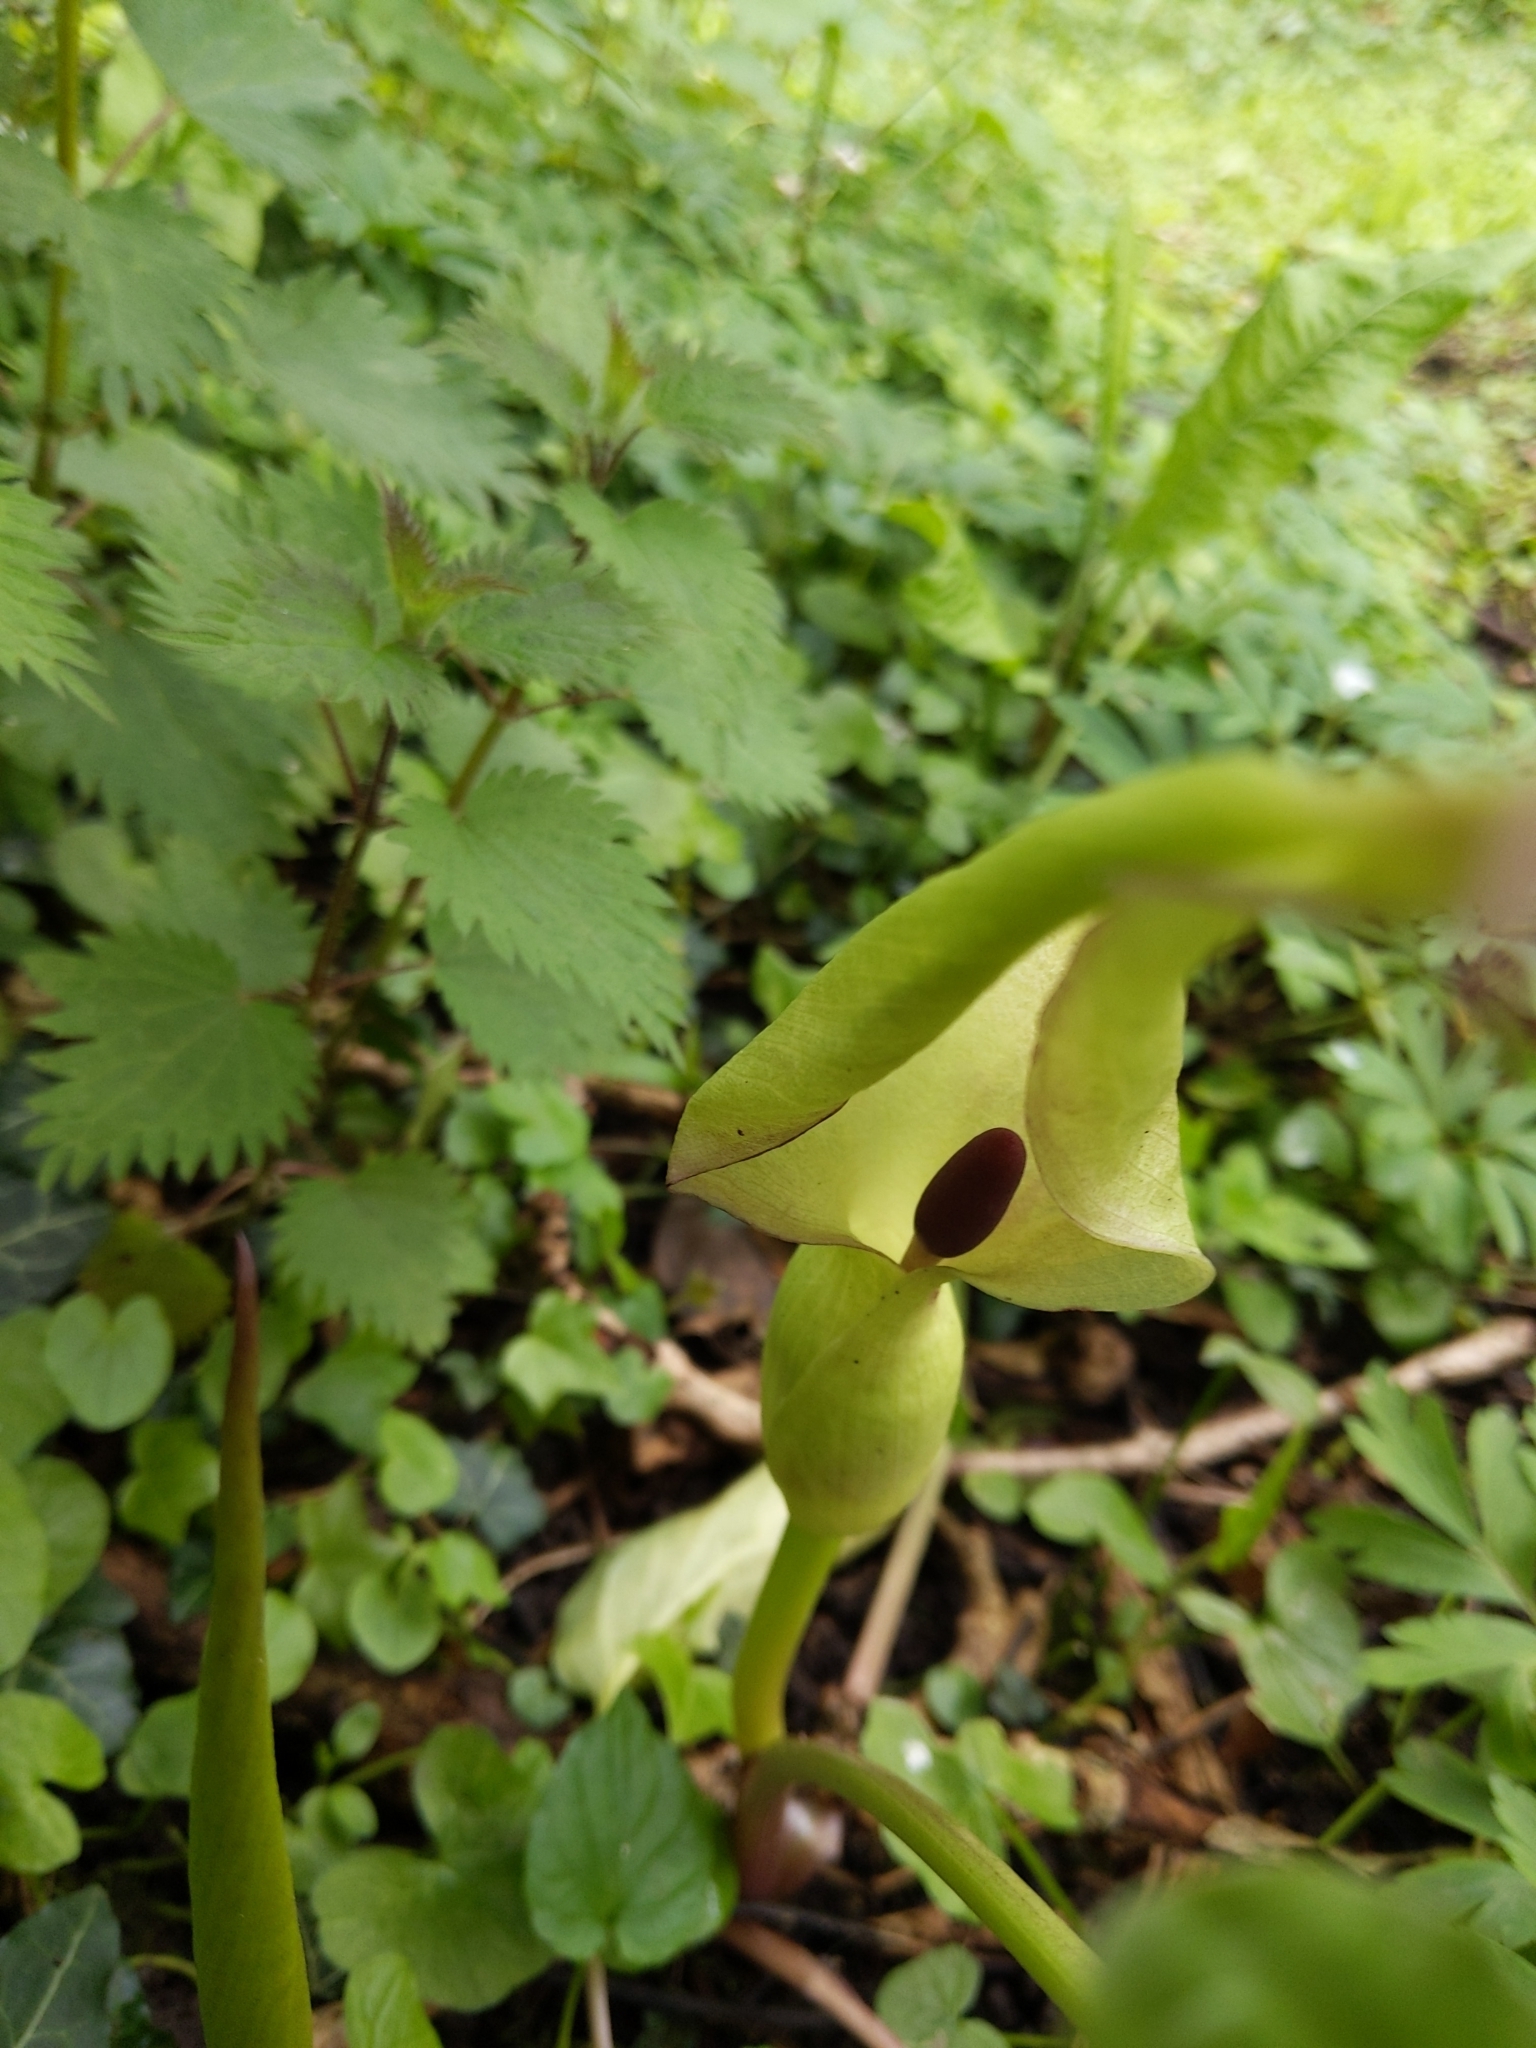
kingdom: Plantae
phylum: Tracheophyta
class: Liliopsida
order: Alismatales
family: Araceae
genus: Arum
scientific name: Arum maculatum
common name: Lords-and-ladies
